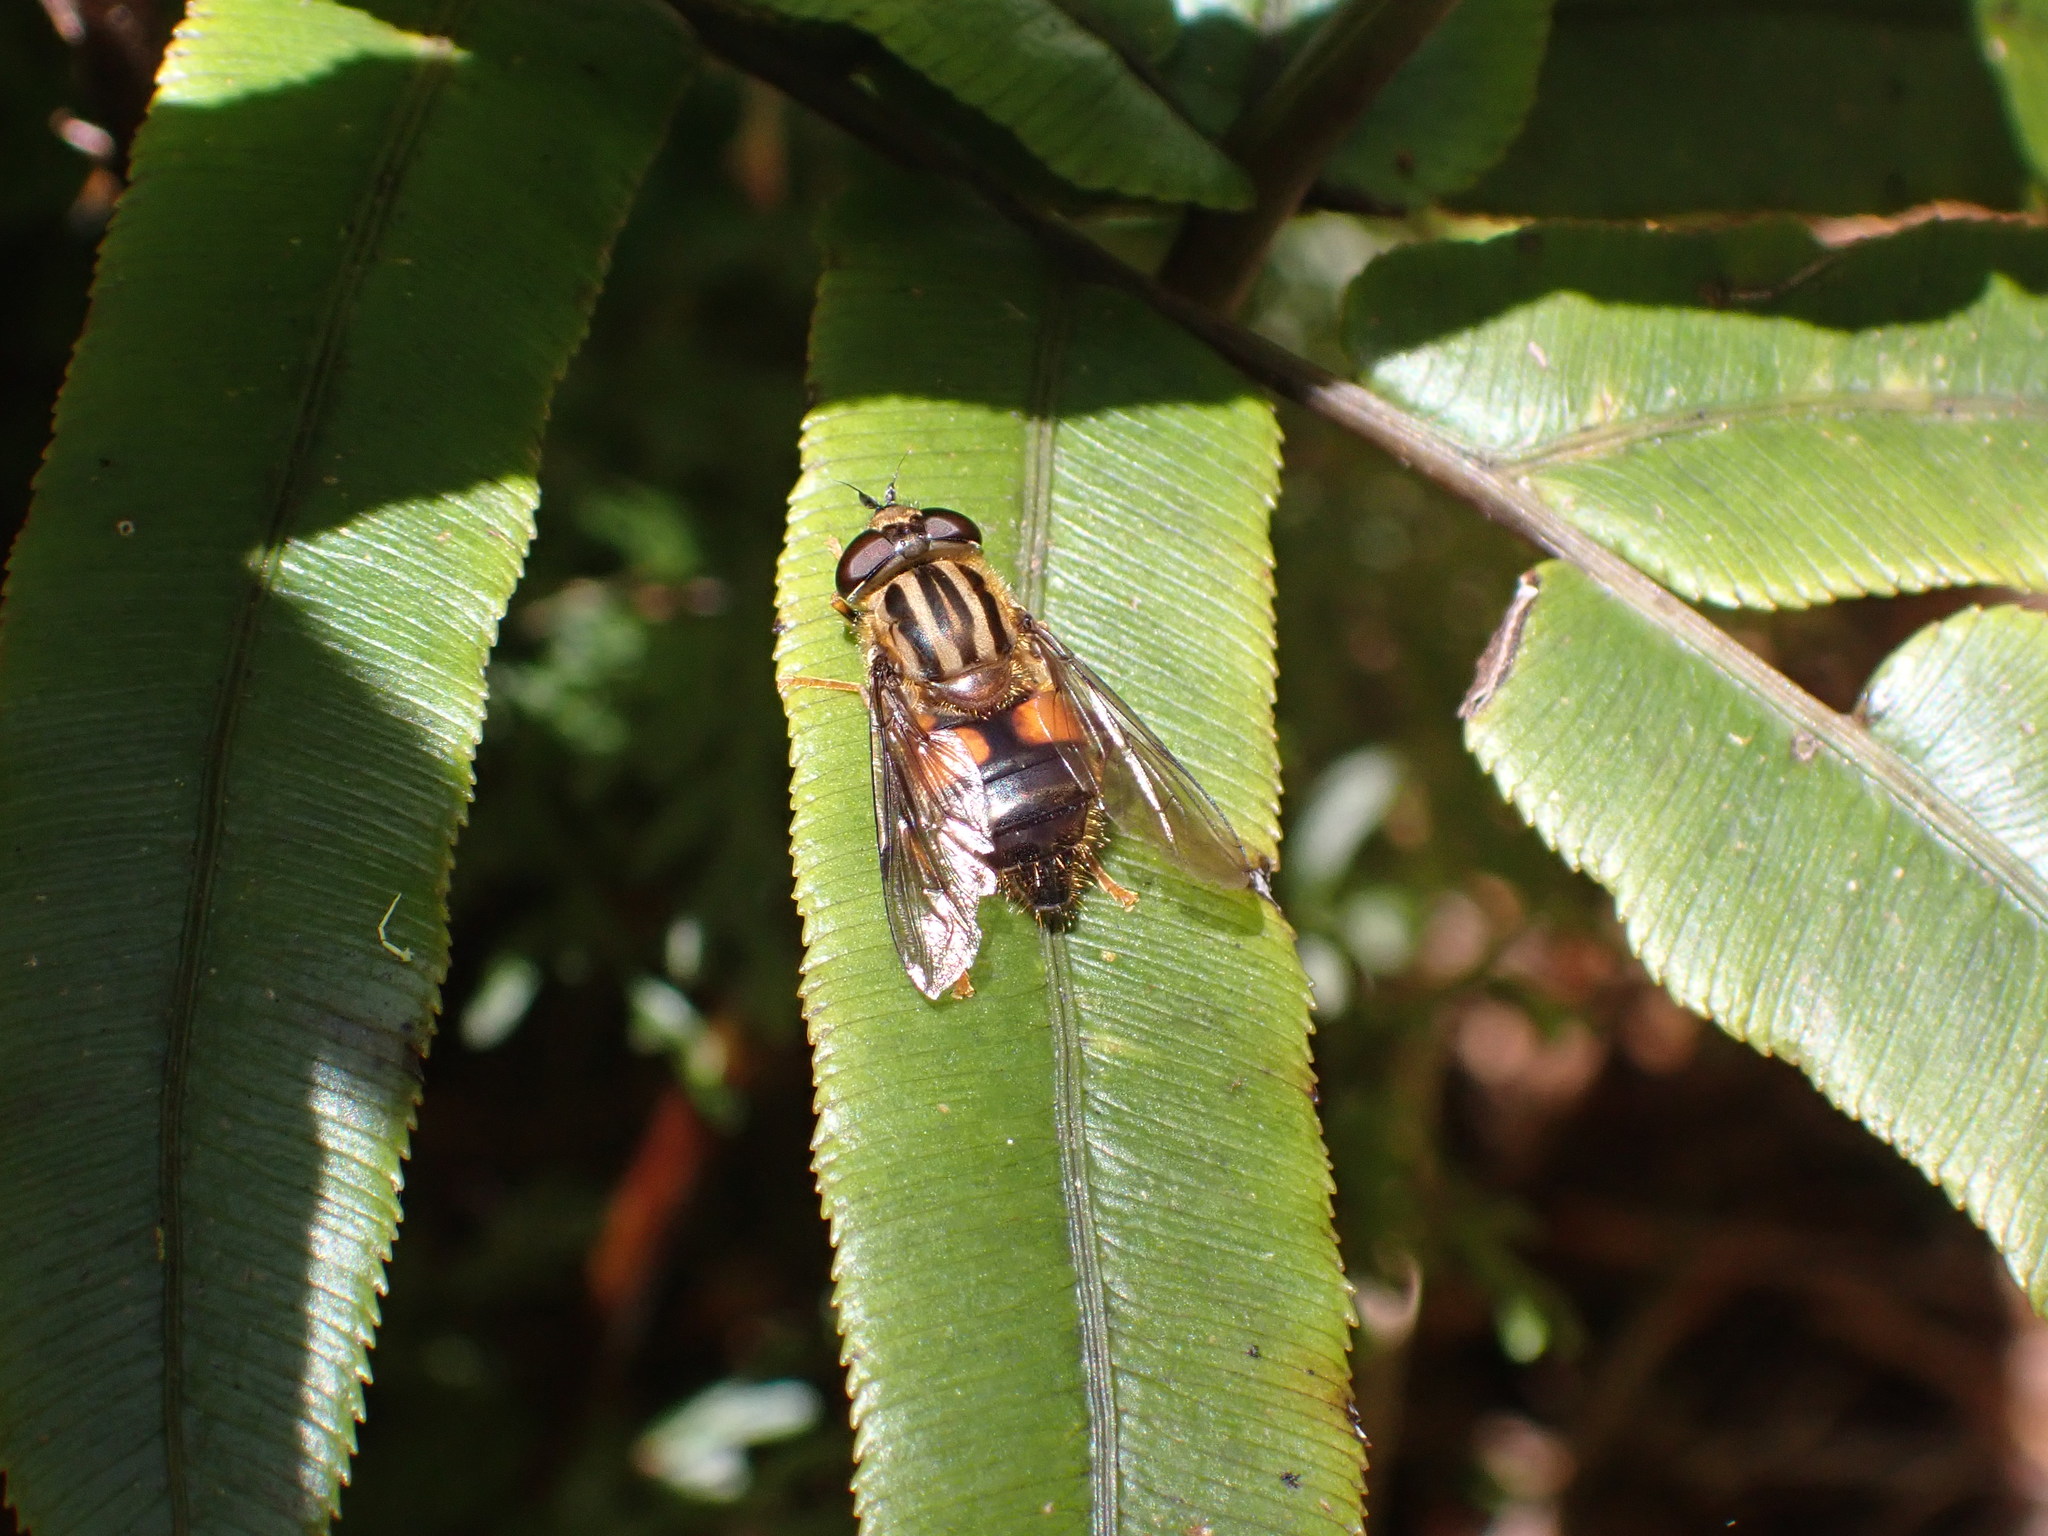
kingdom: Animalia
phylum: Arthropoda
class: Insecta
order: Diptera
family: Syrphidae
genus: Helophilus
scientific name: Helophilus antipodus
